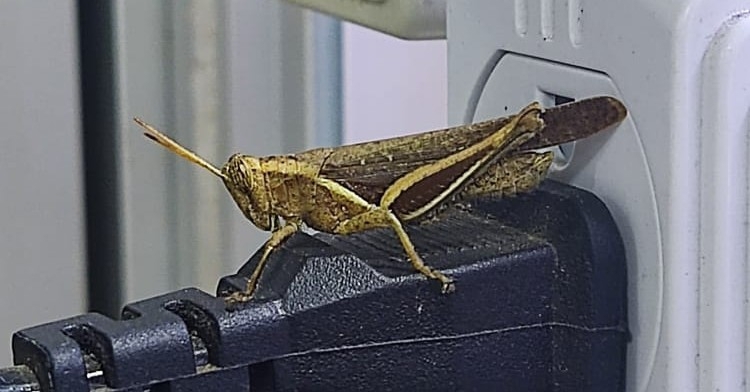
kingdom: Animalia
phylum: Arthropoda
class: Insecta
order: Orthoptera
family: Acrididae
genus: Abracris
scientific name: Abracris flavolineata
